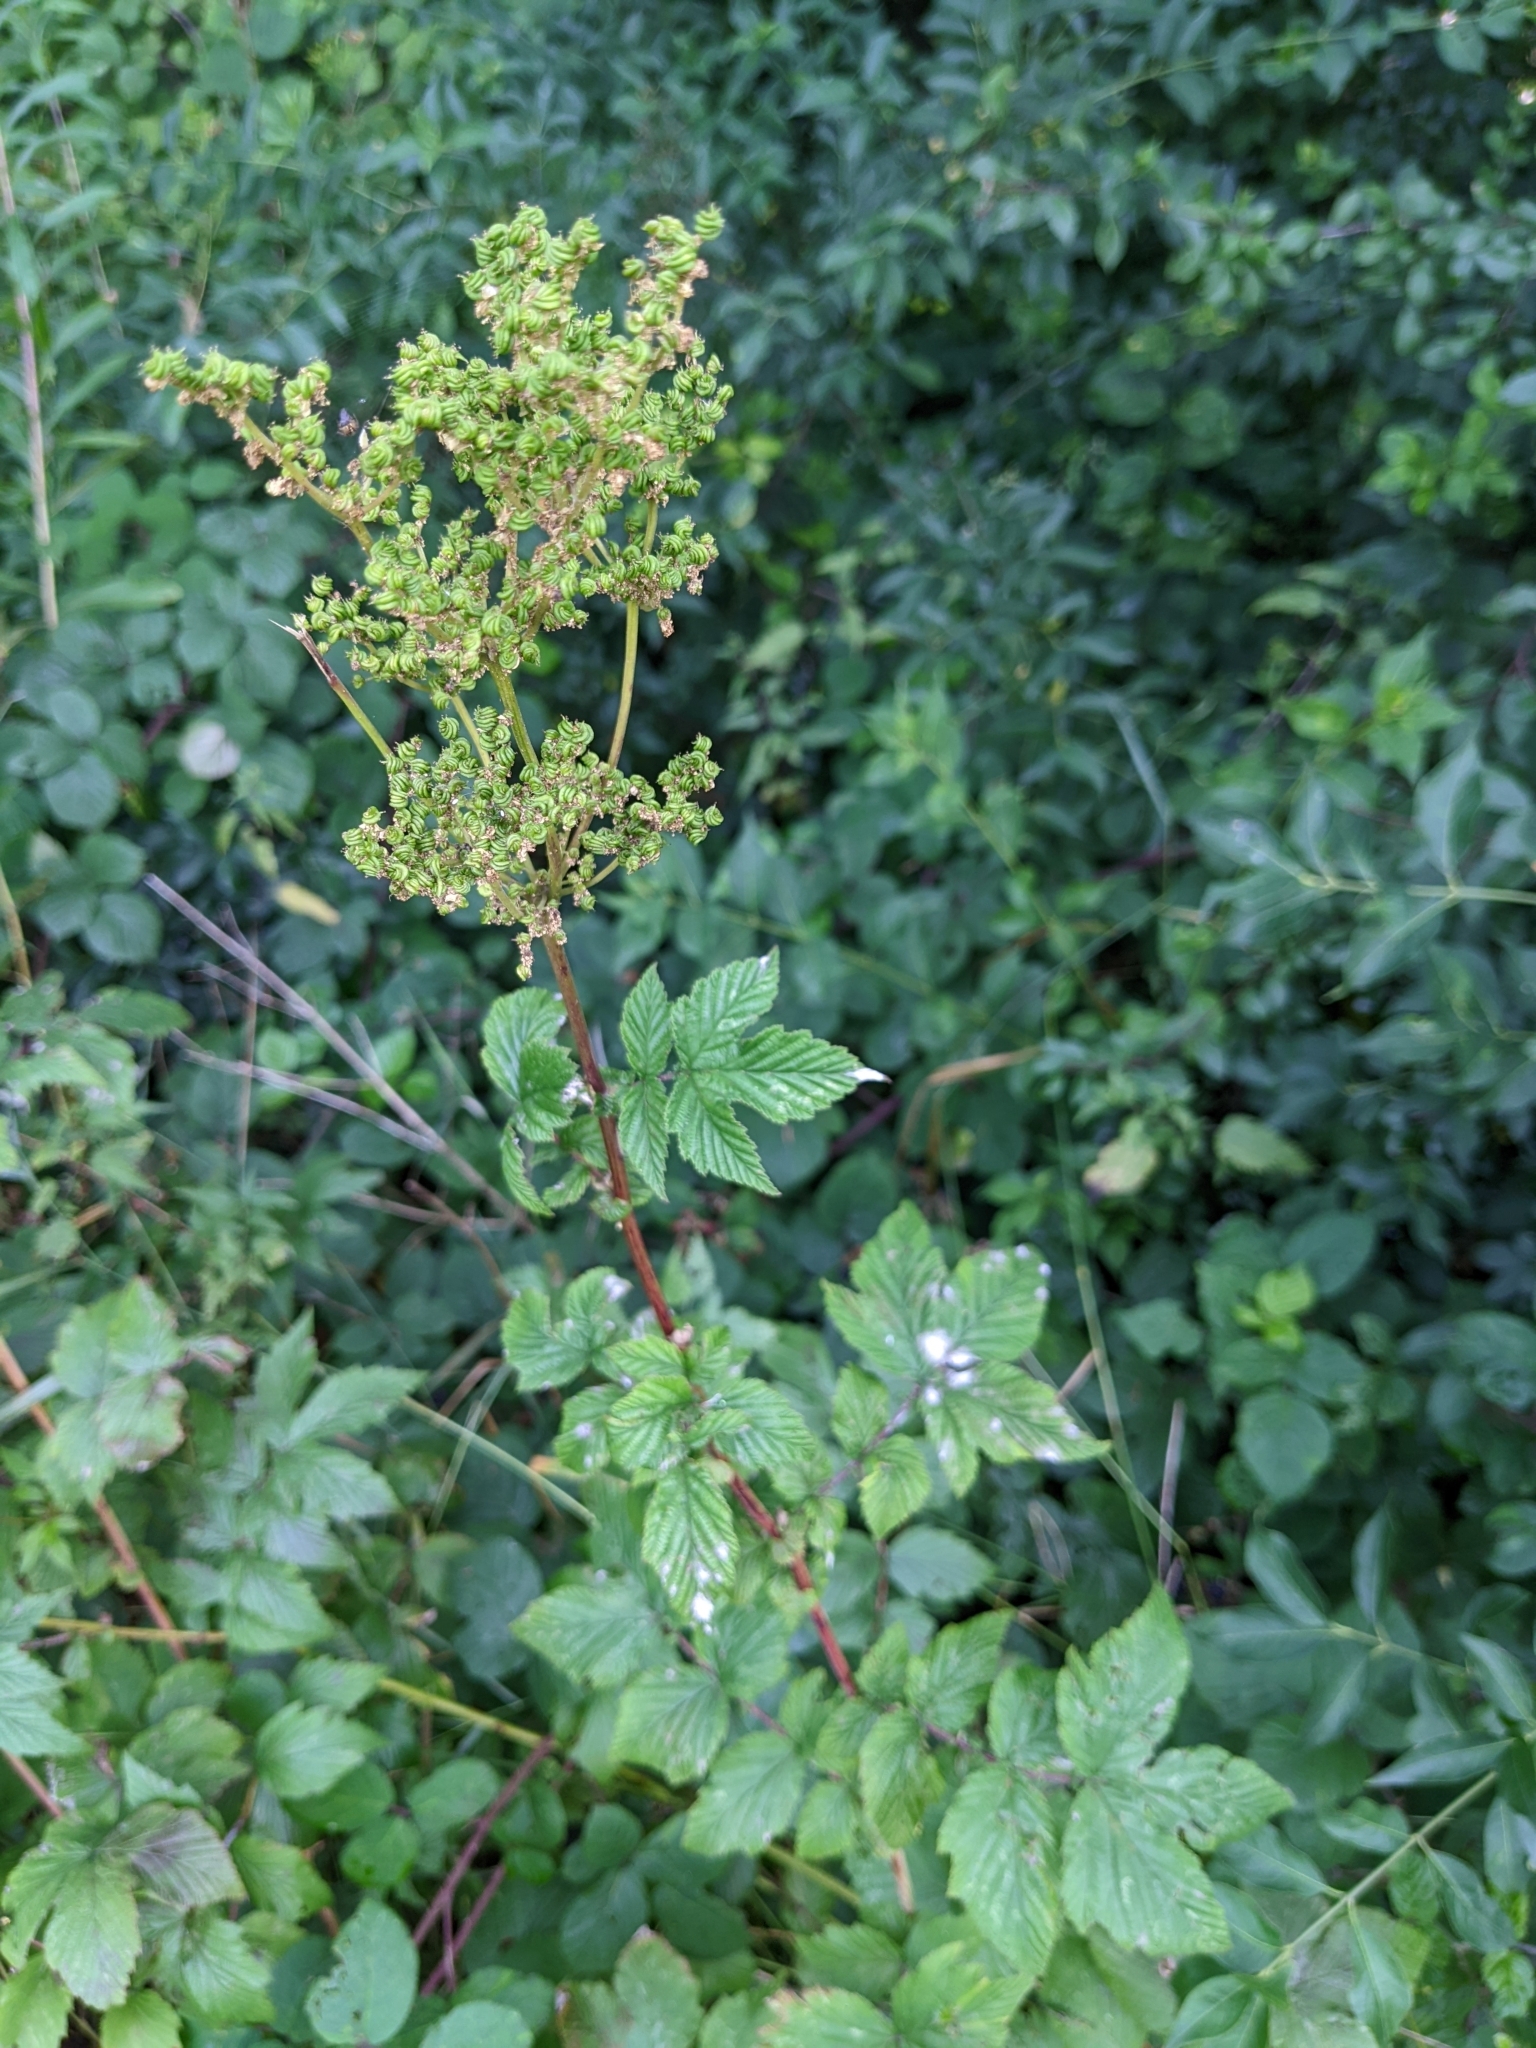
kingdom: Plantae
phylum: Tracheophyta
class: Magnoliopsida
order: Rosales
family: Rosaceae
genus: Filipendula
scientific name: Filipendula ulmaria
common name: Meadowsweet
